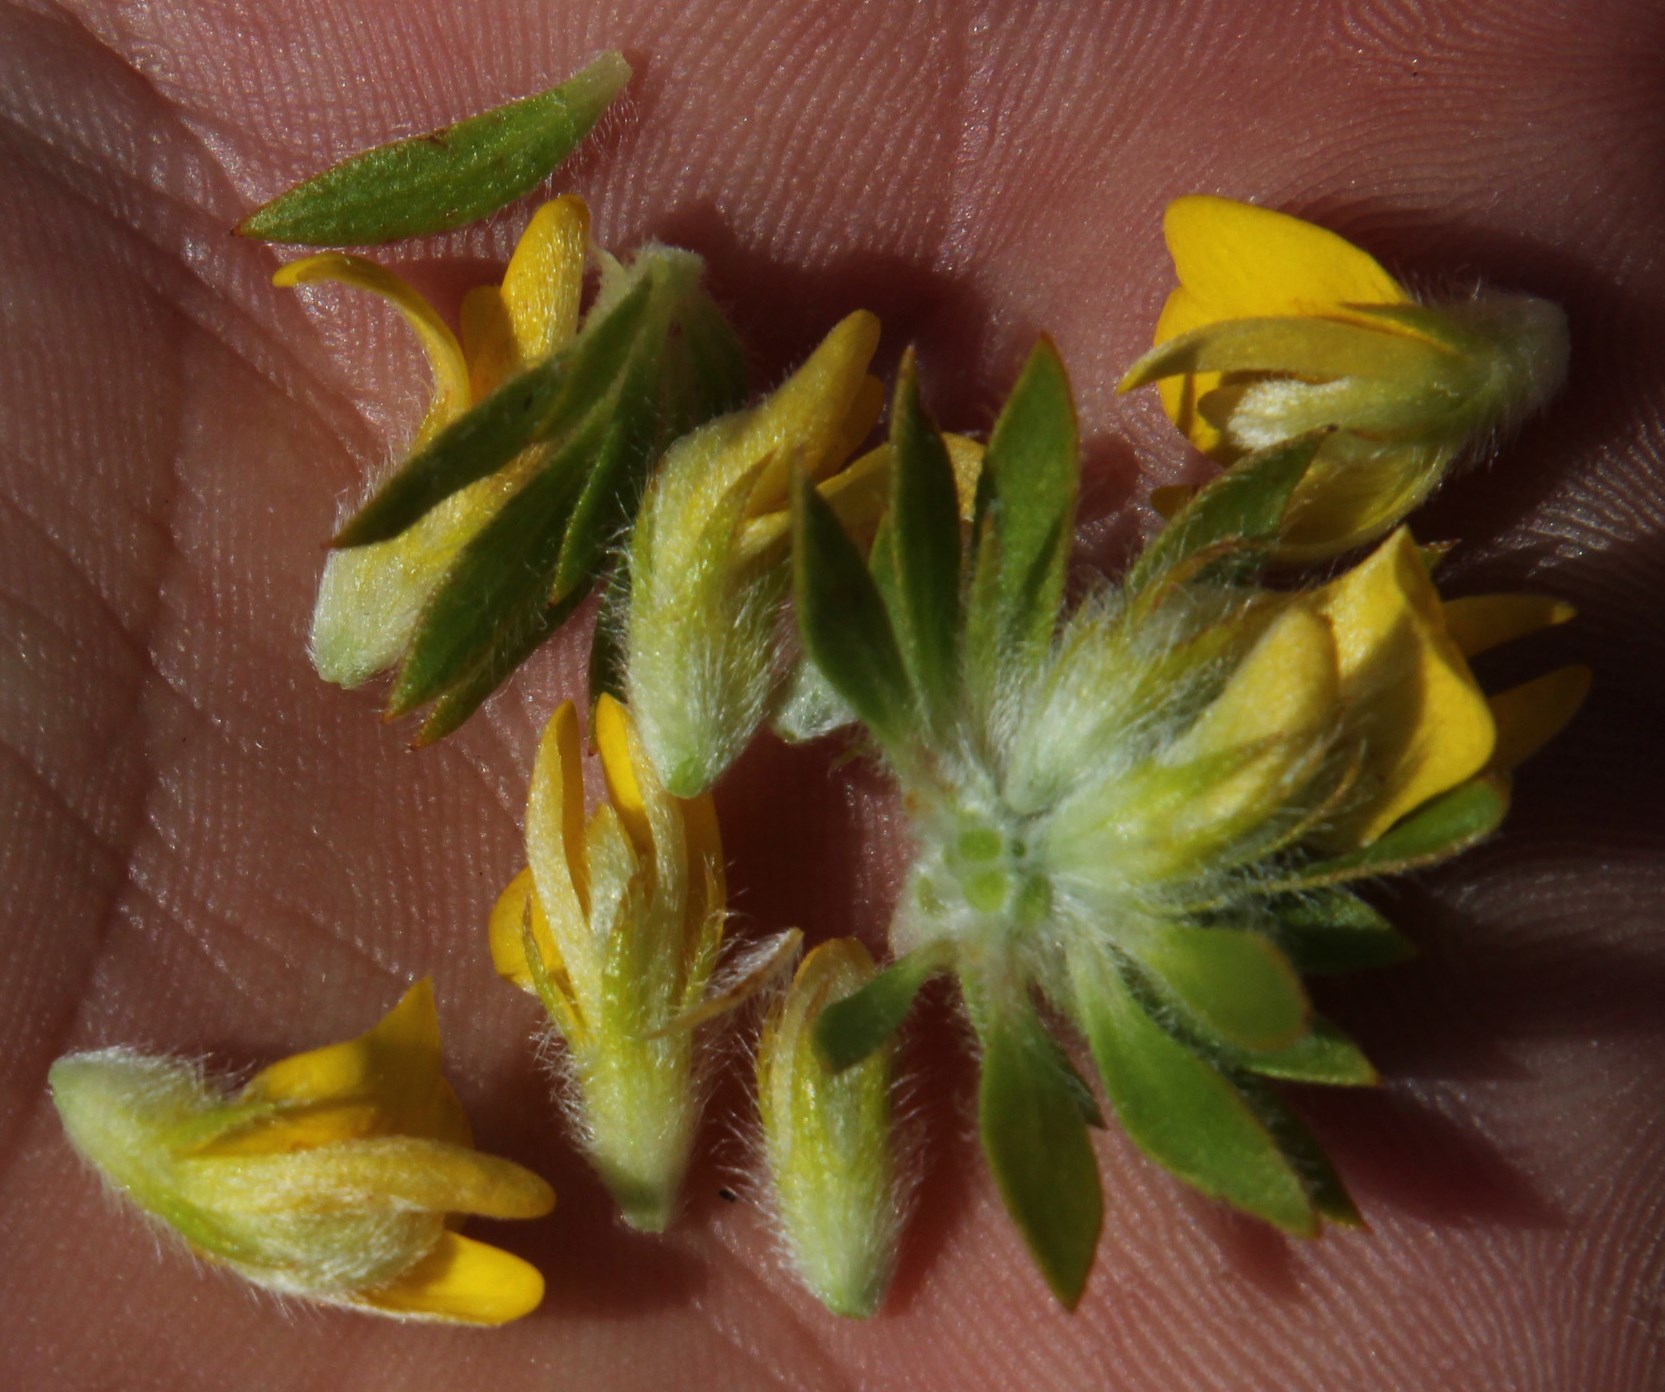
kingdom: Plantae
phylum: Tracheophyta
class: Magnoliopsida
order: Fabales
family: Fabaceae
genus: Aspalathus
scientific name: Aspalathus aspalathoides
